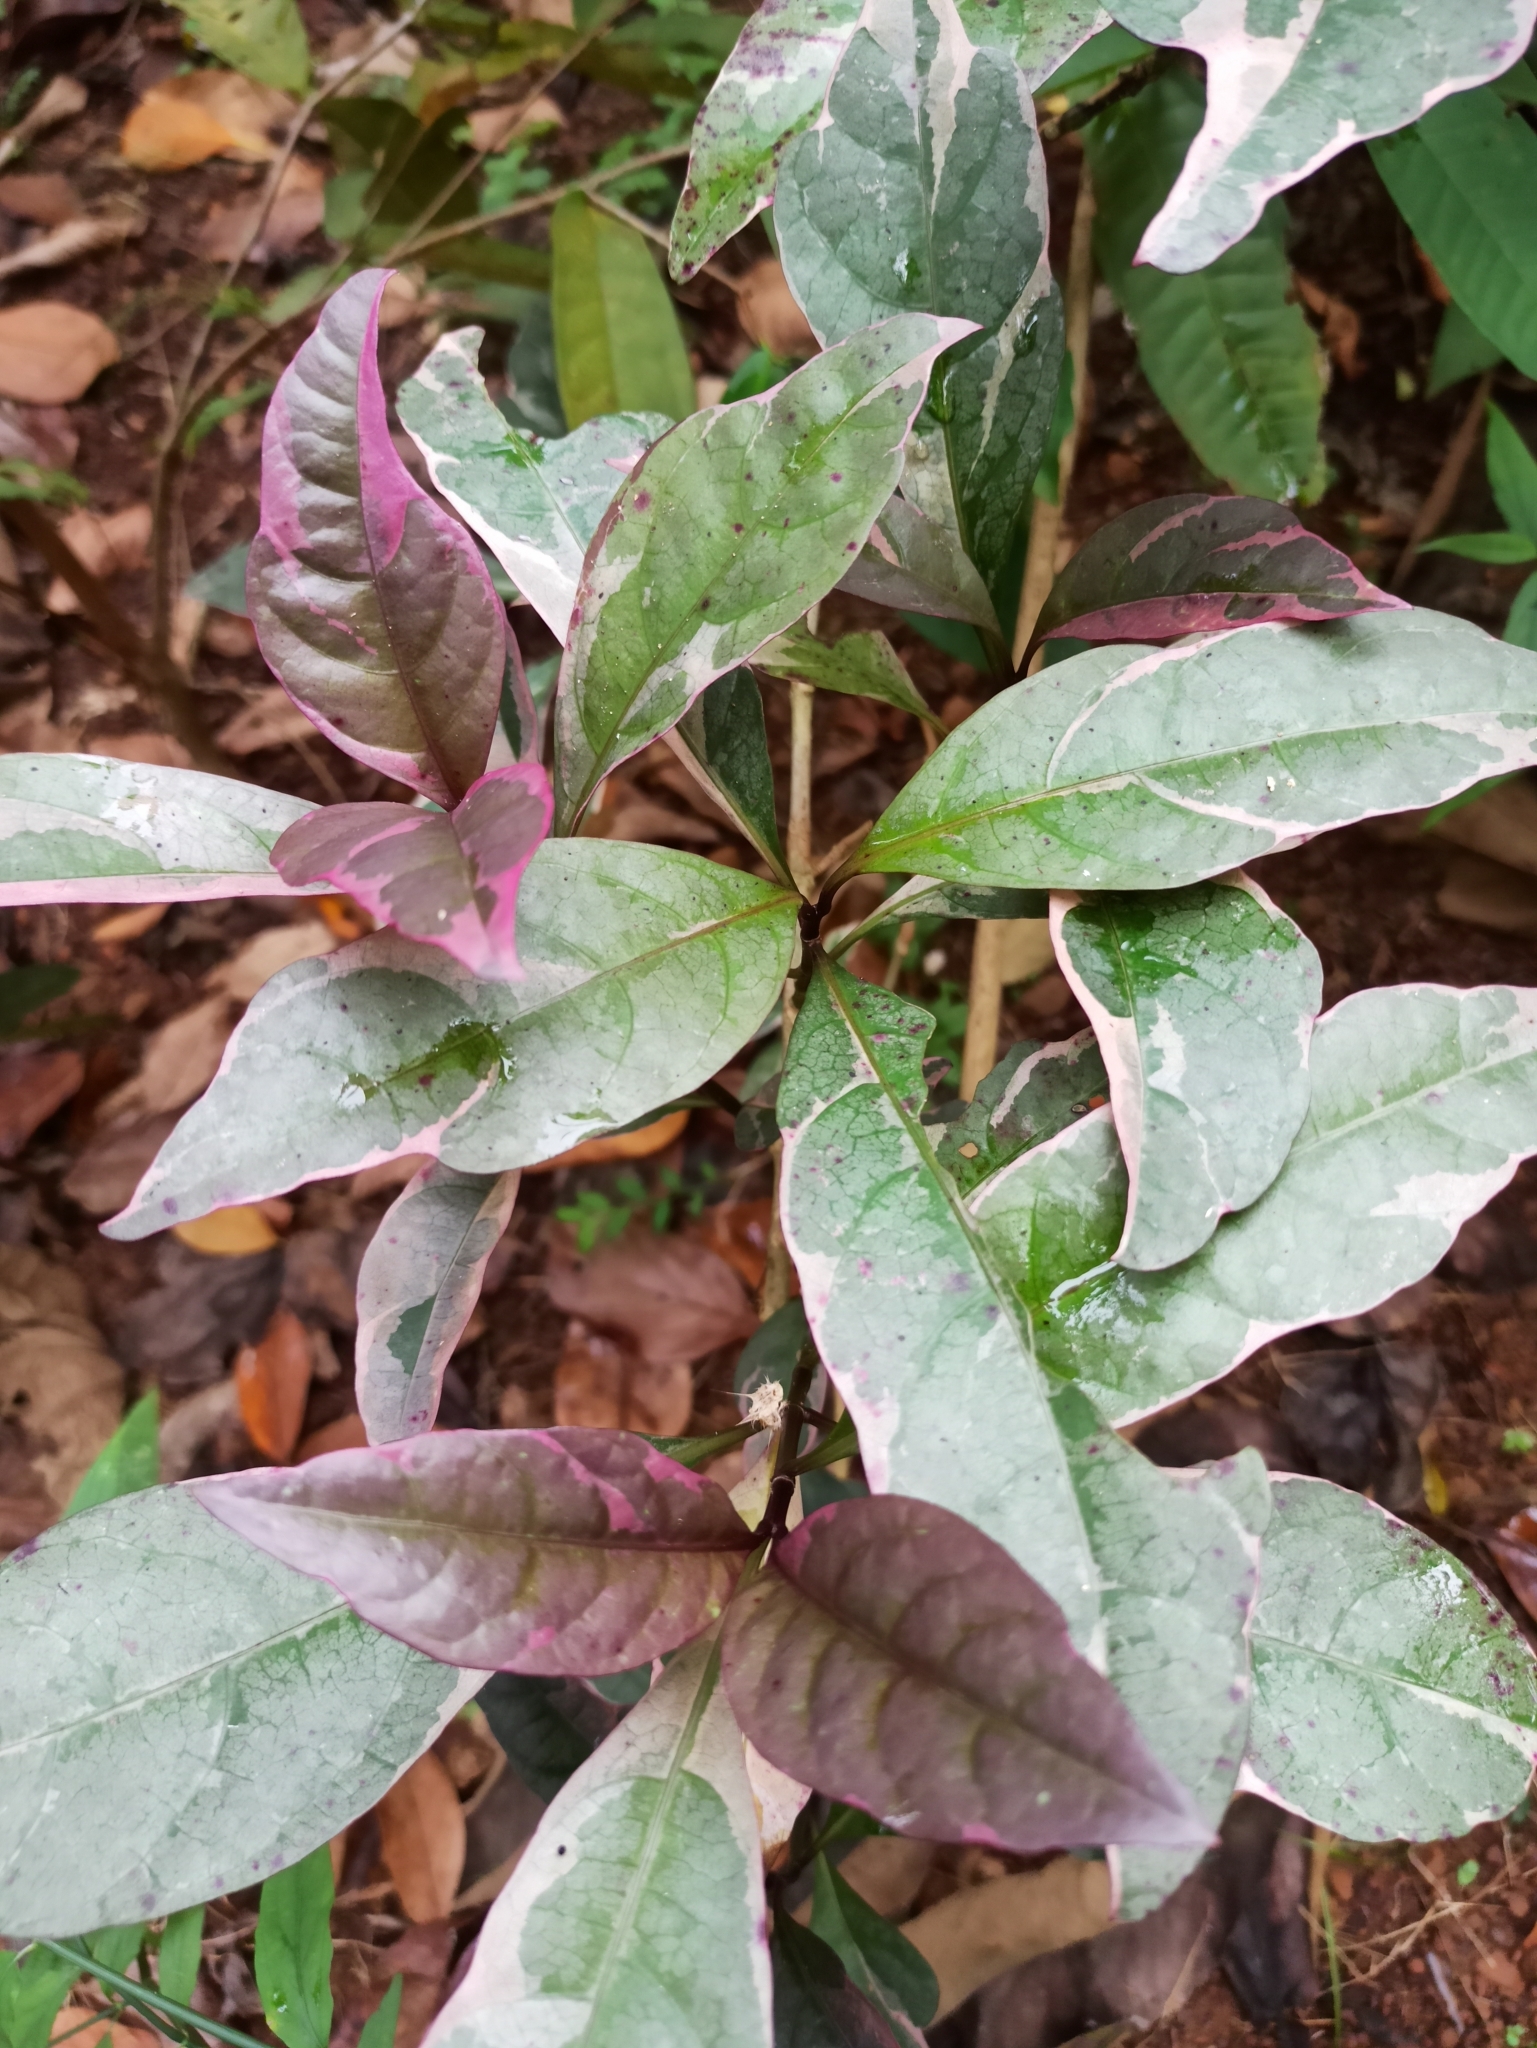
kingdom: Plantae
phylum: Tracheophyta
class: Magnoliopsida
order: Lamiales
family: Acanthaceae
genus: Pseuderanthemum
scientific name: Pseuderanthemum maculatum
